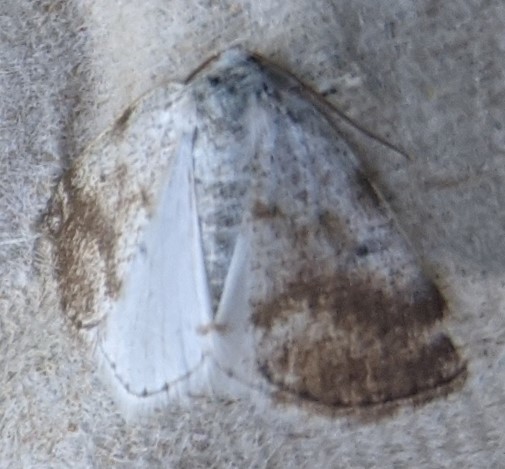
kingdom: Animalia
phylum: Arthropoda
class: Insecta
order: Lepidoptera
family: Geometridae
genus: Lomographa
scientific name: Lomographa semiclarata
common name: Bluish spring moth
